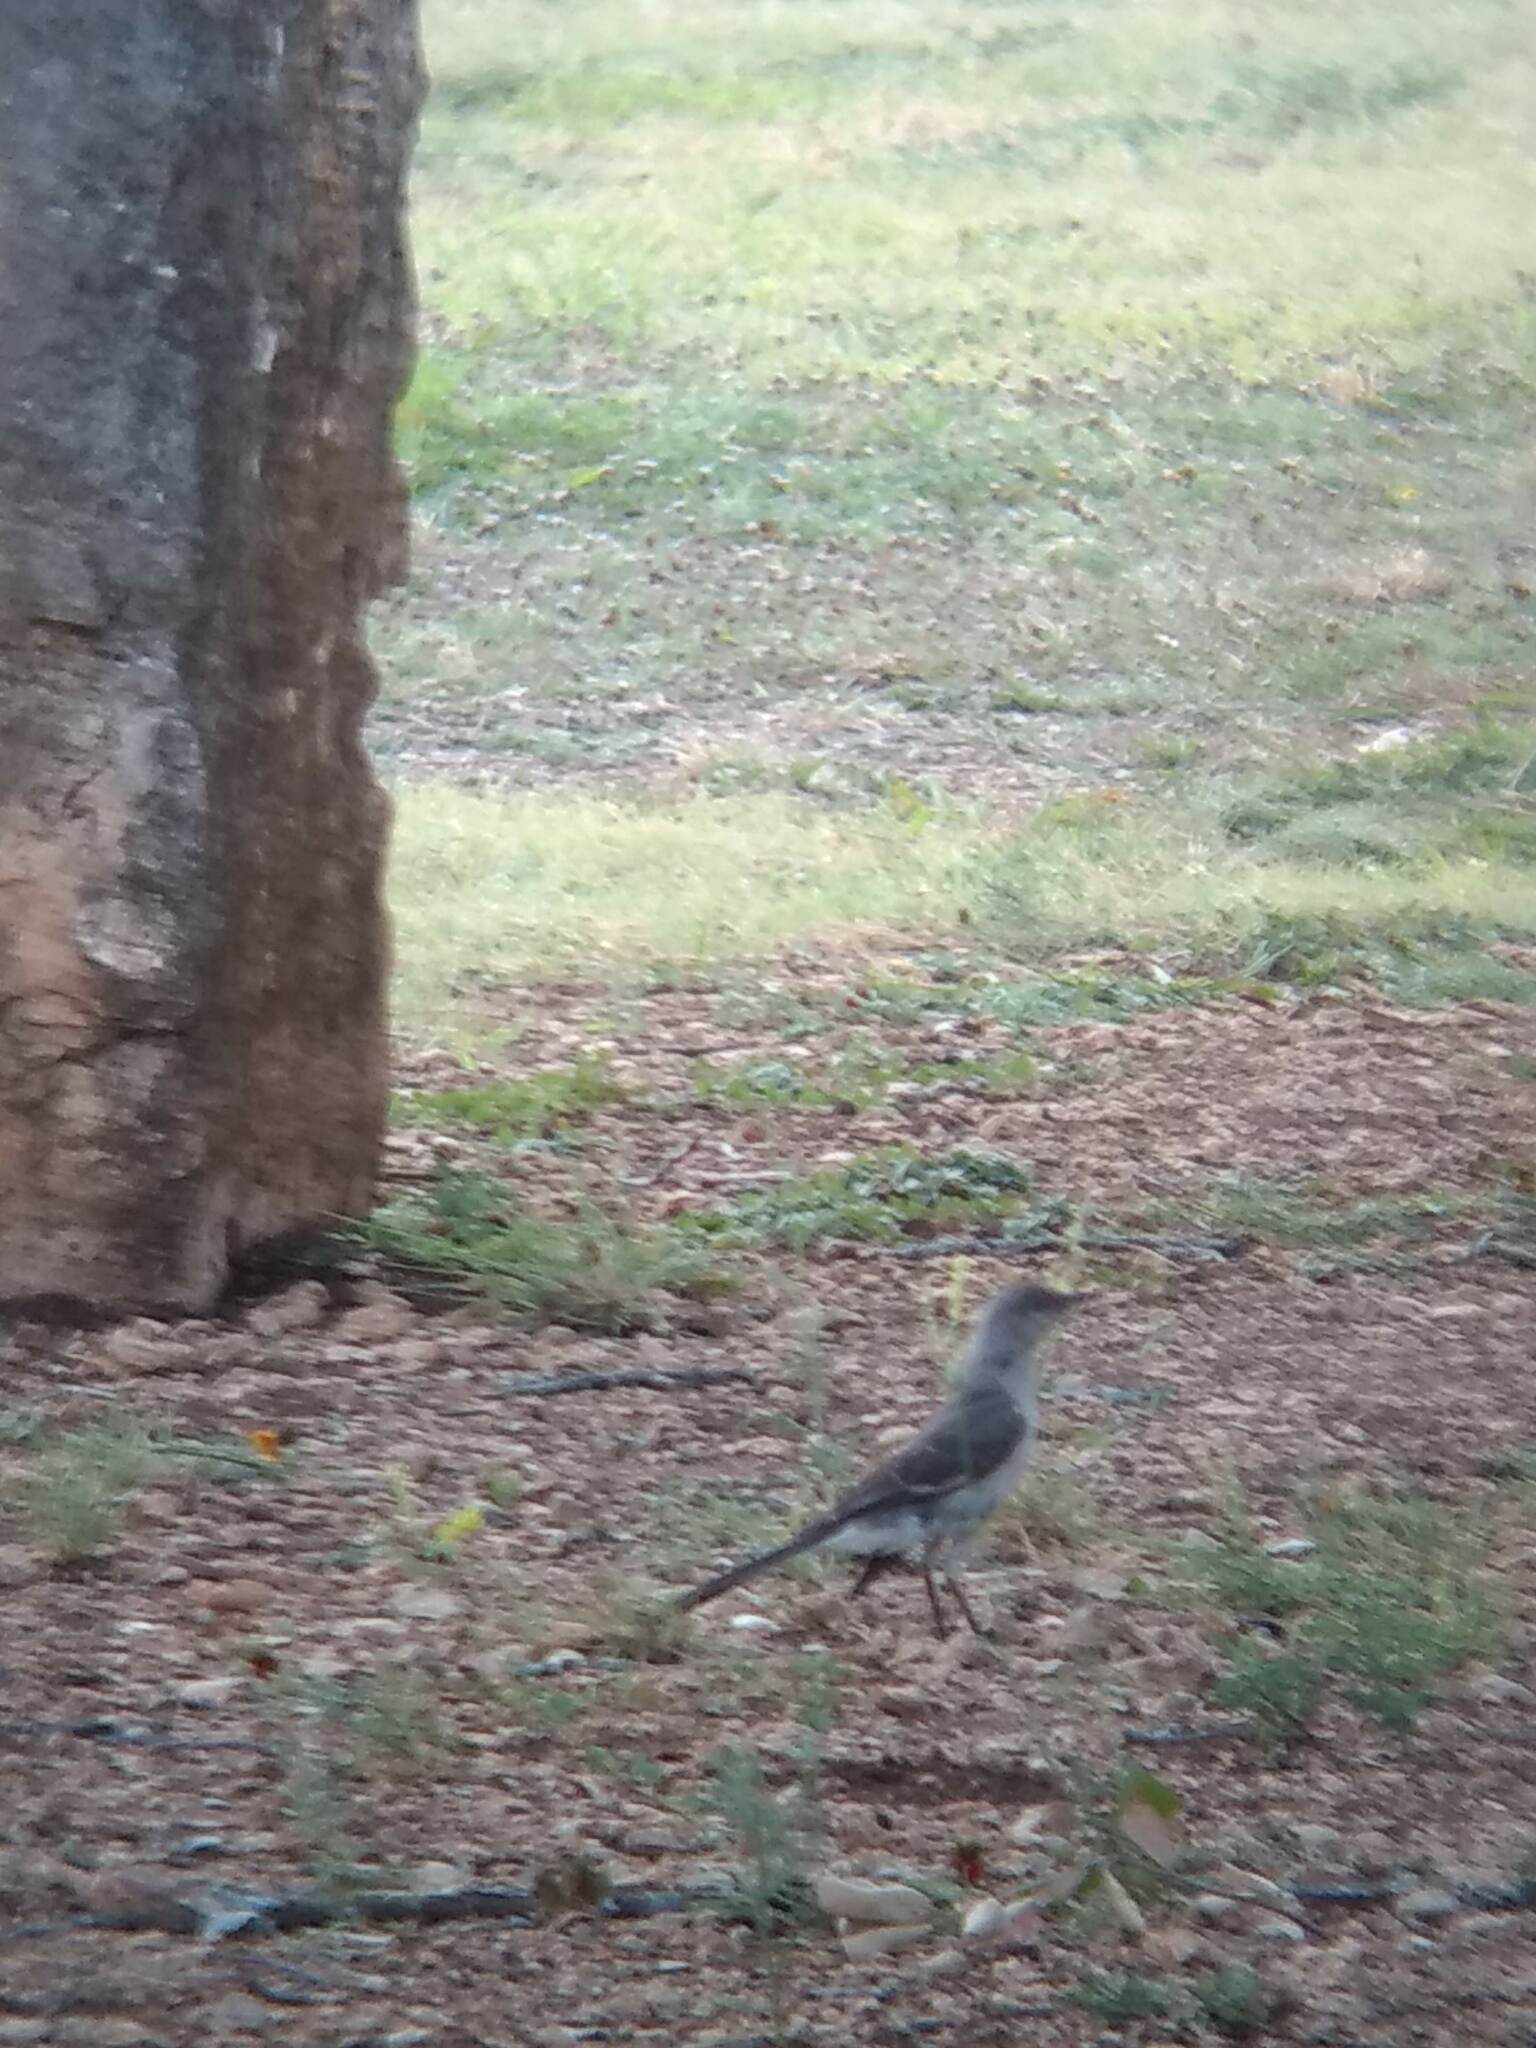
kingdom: Animalia
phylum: Chordata
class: Aves
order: Passeriformes
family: Mimidae
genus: Mimus
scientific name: Mimus polyglottos
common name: Northern mockingbird
